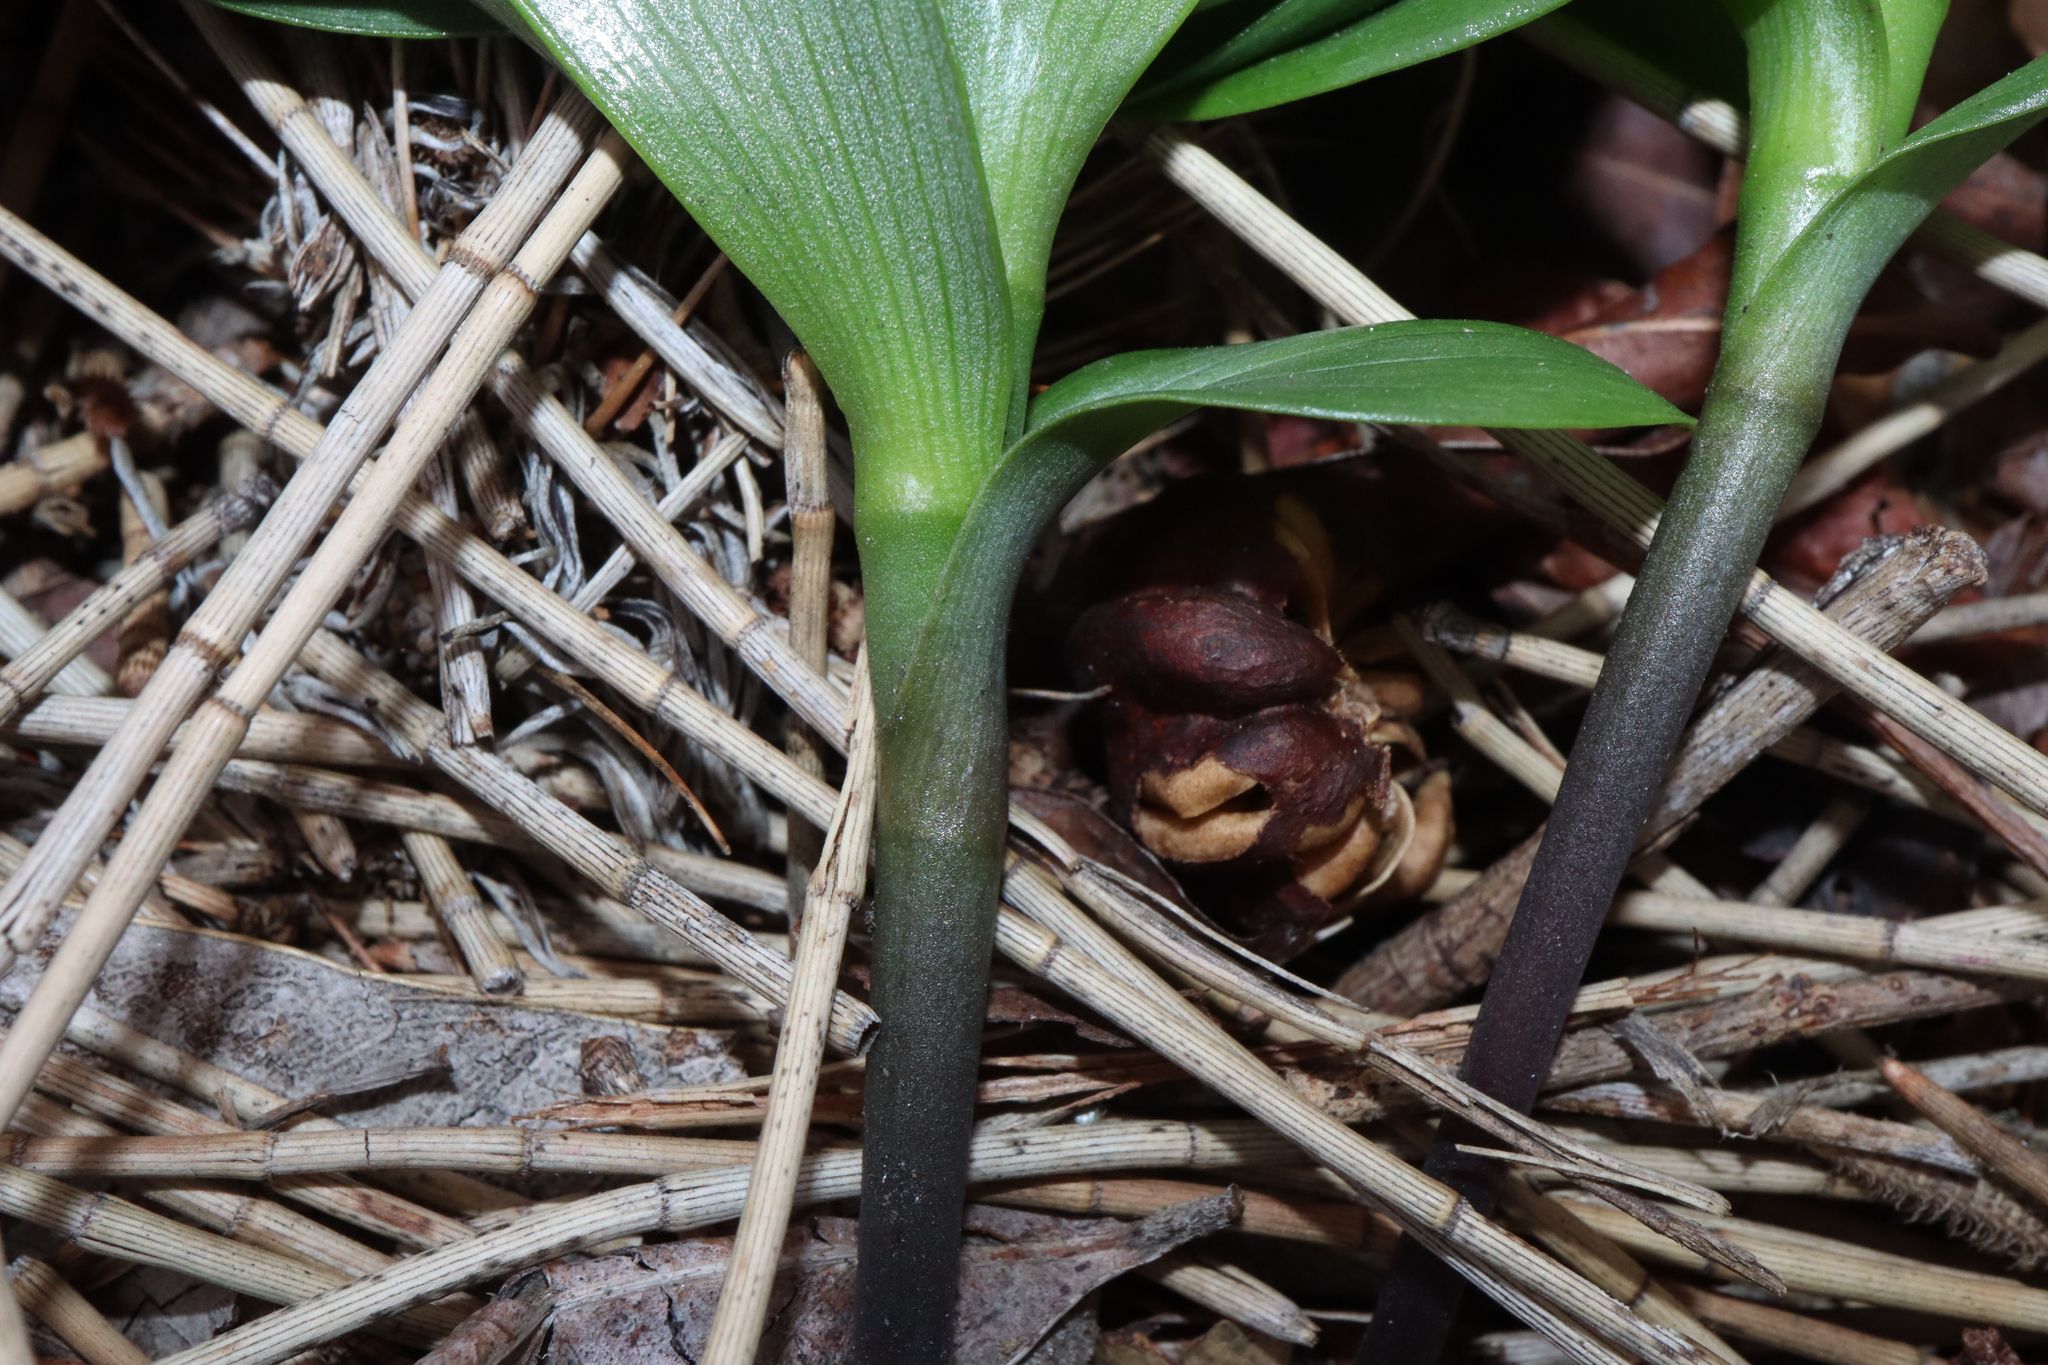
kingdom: Plantae
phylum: Tracheophyta
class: Liliopsida
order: Liliales
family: Colchicaceae
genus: Gloriosa
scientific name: Gloriosa superba
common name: Flame lily
